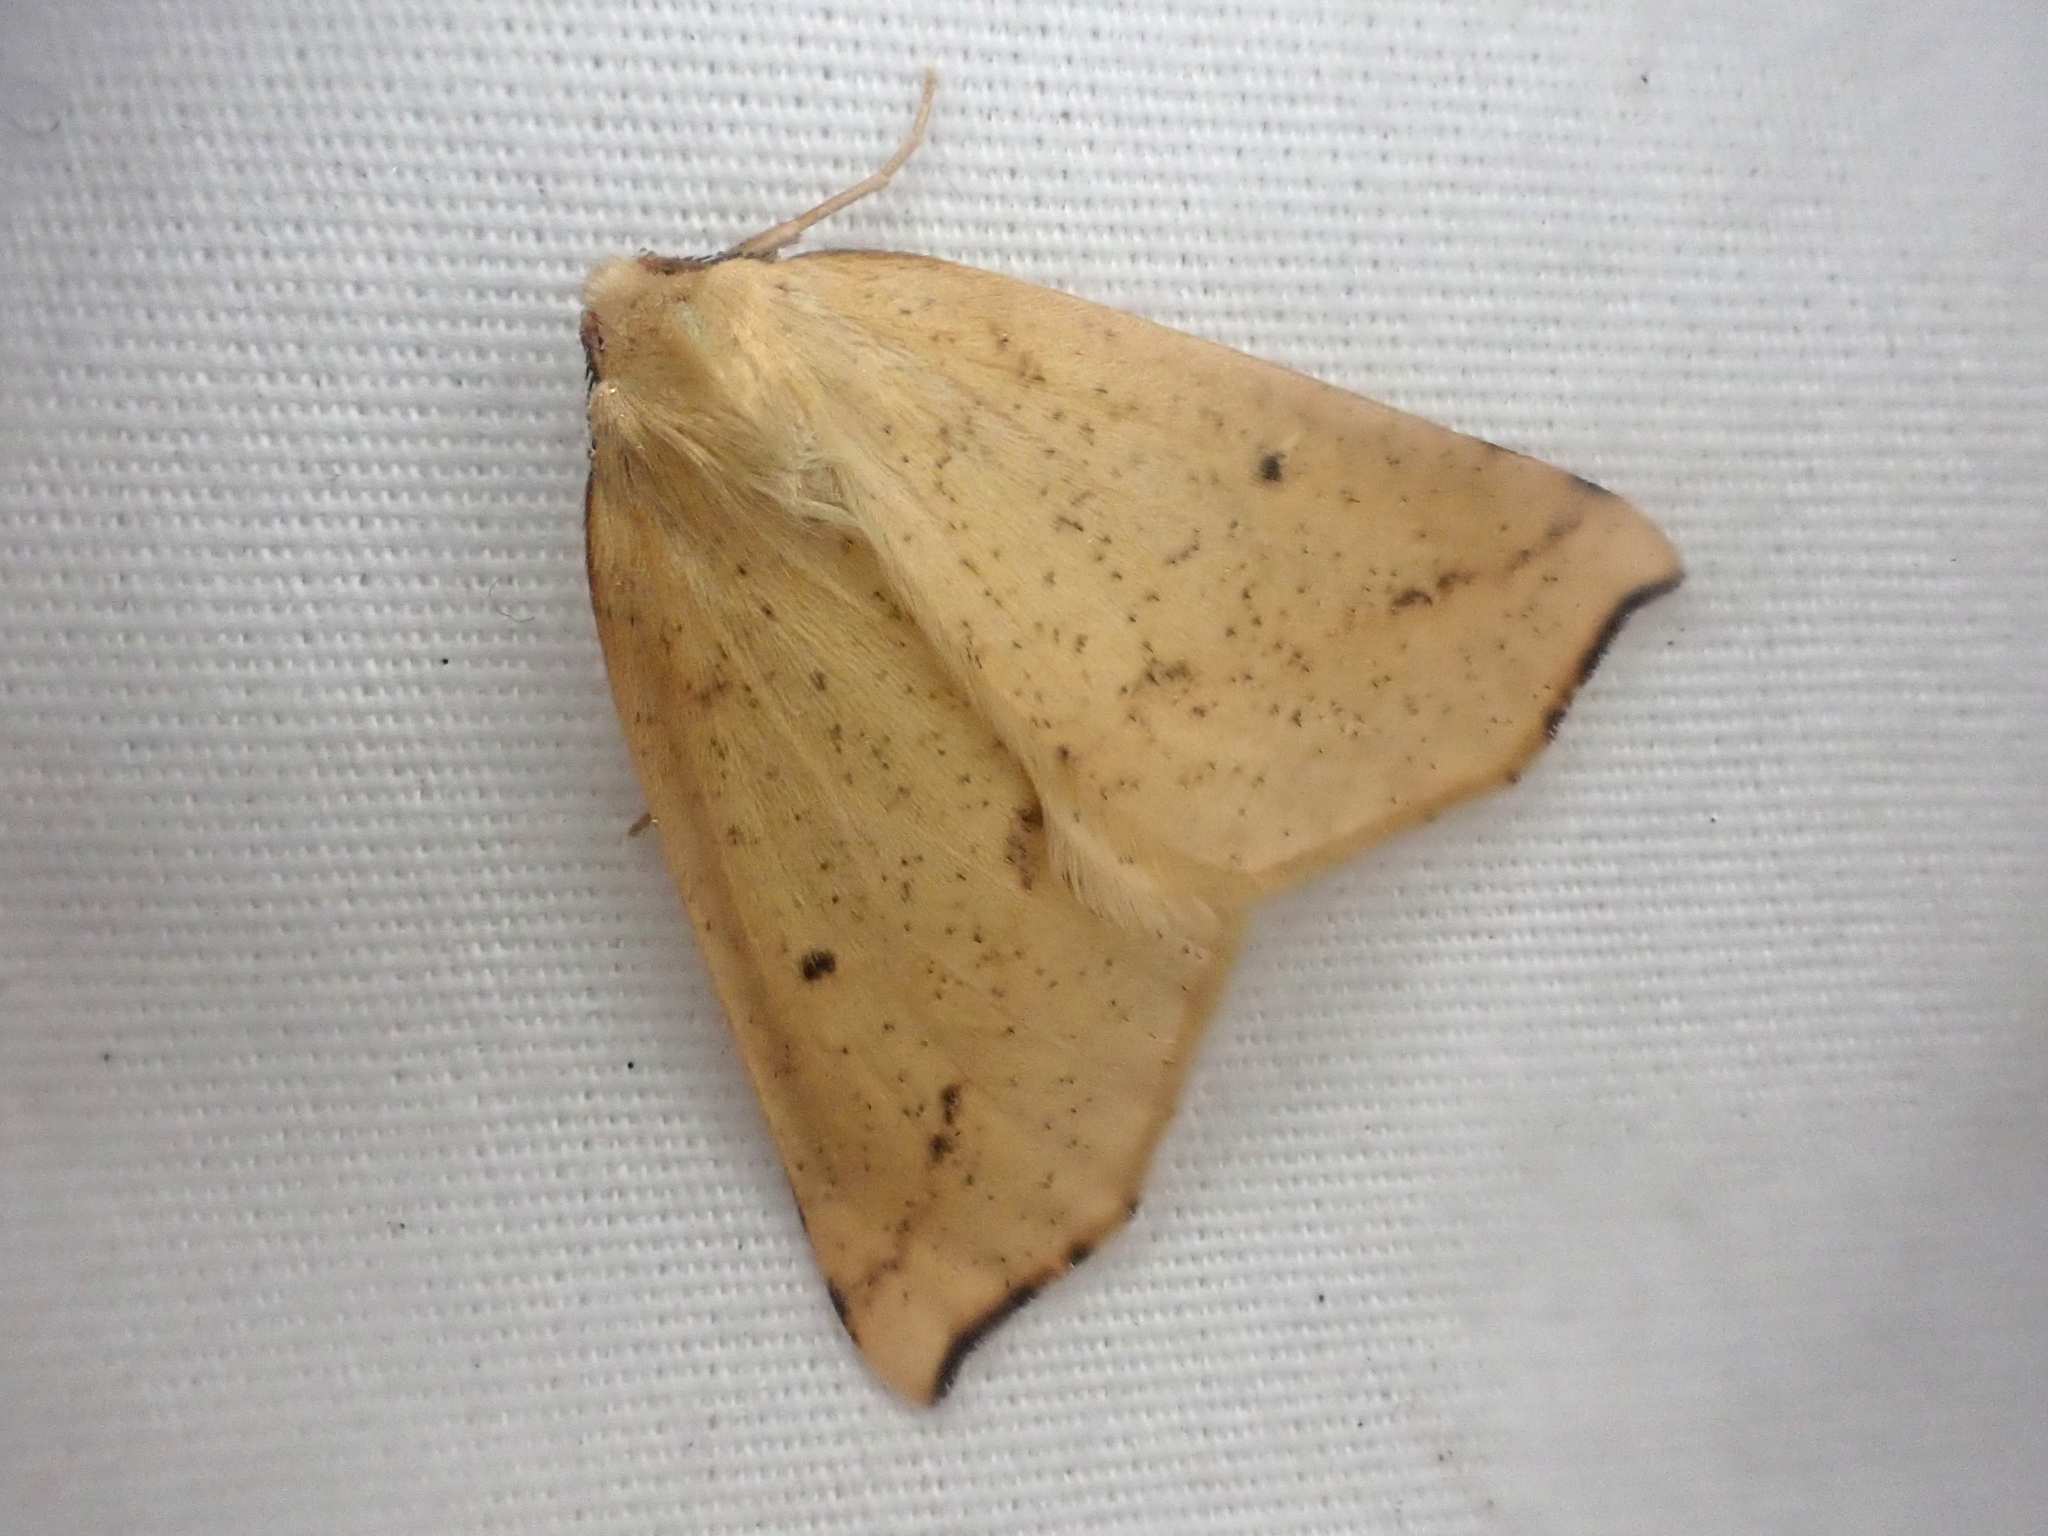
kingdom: Animalia
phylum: Arthropoda
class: Insecta
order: Lepidoptera
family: Geometridae
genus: Neoterpes
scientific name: Neoterpes edwardsata
